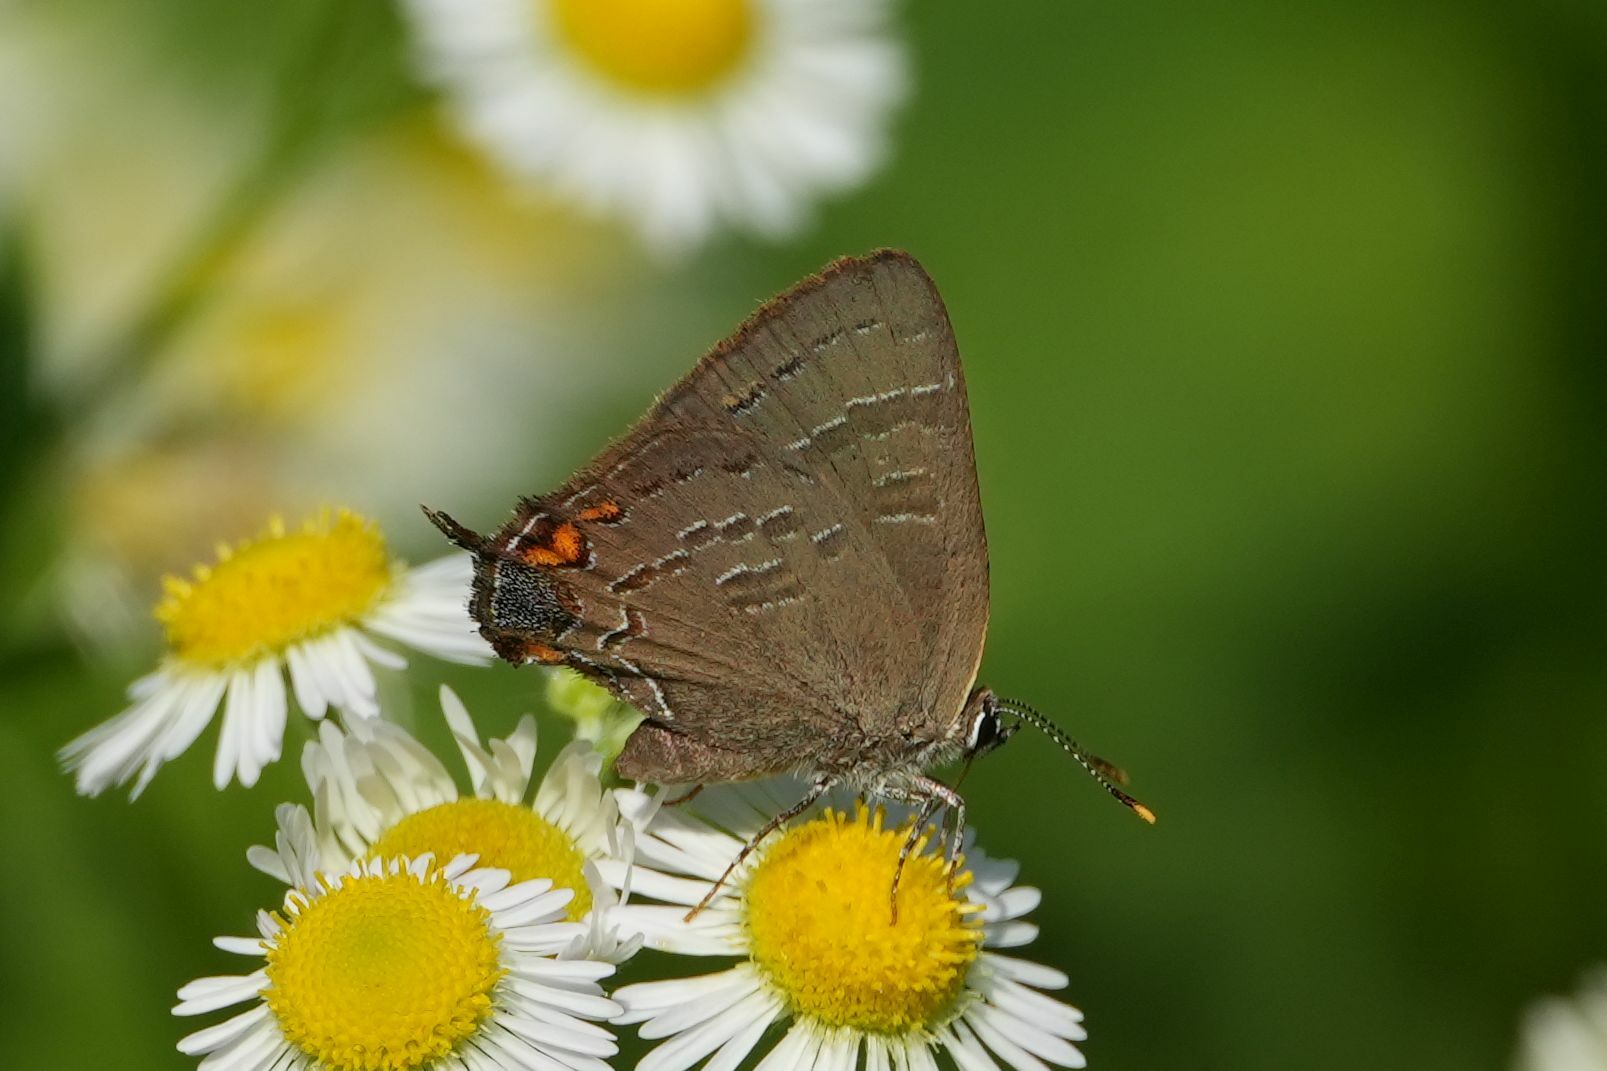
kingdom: Animalia
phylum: Arthropoda
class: Insecta
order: Lepidoptera
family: Lycaenidae
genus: Satyrium
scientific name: Satyrium calanus
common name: Banded hairstreak
